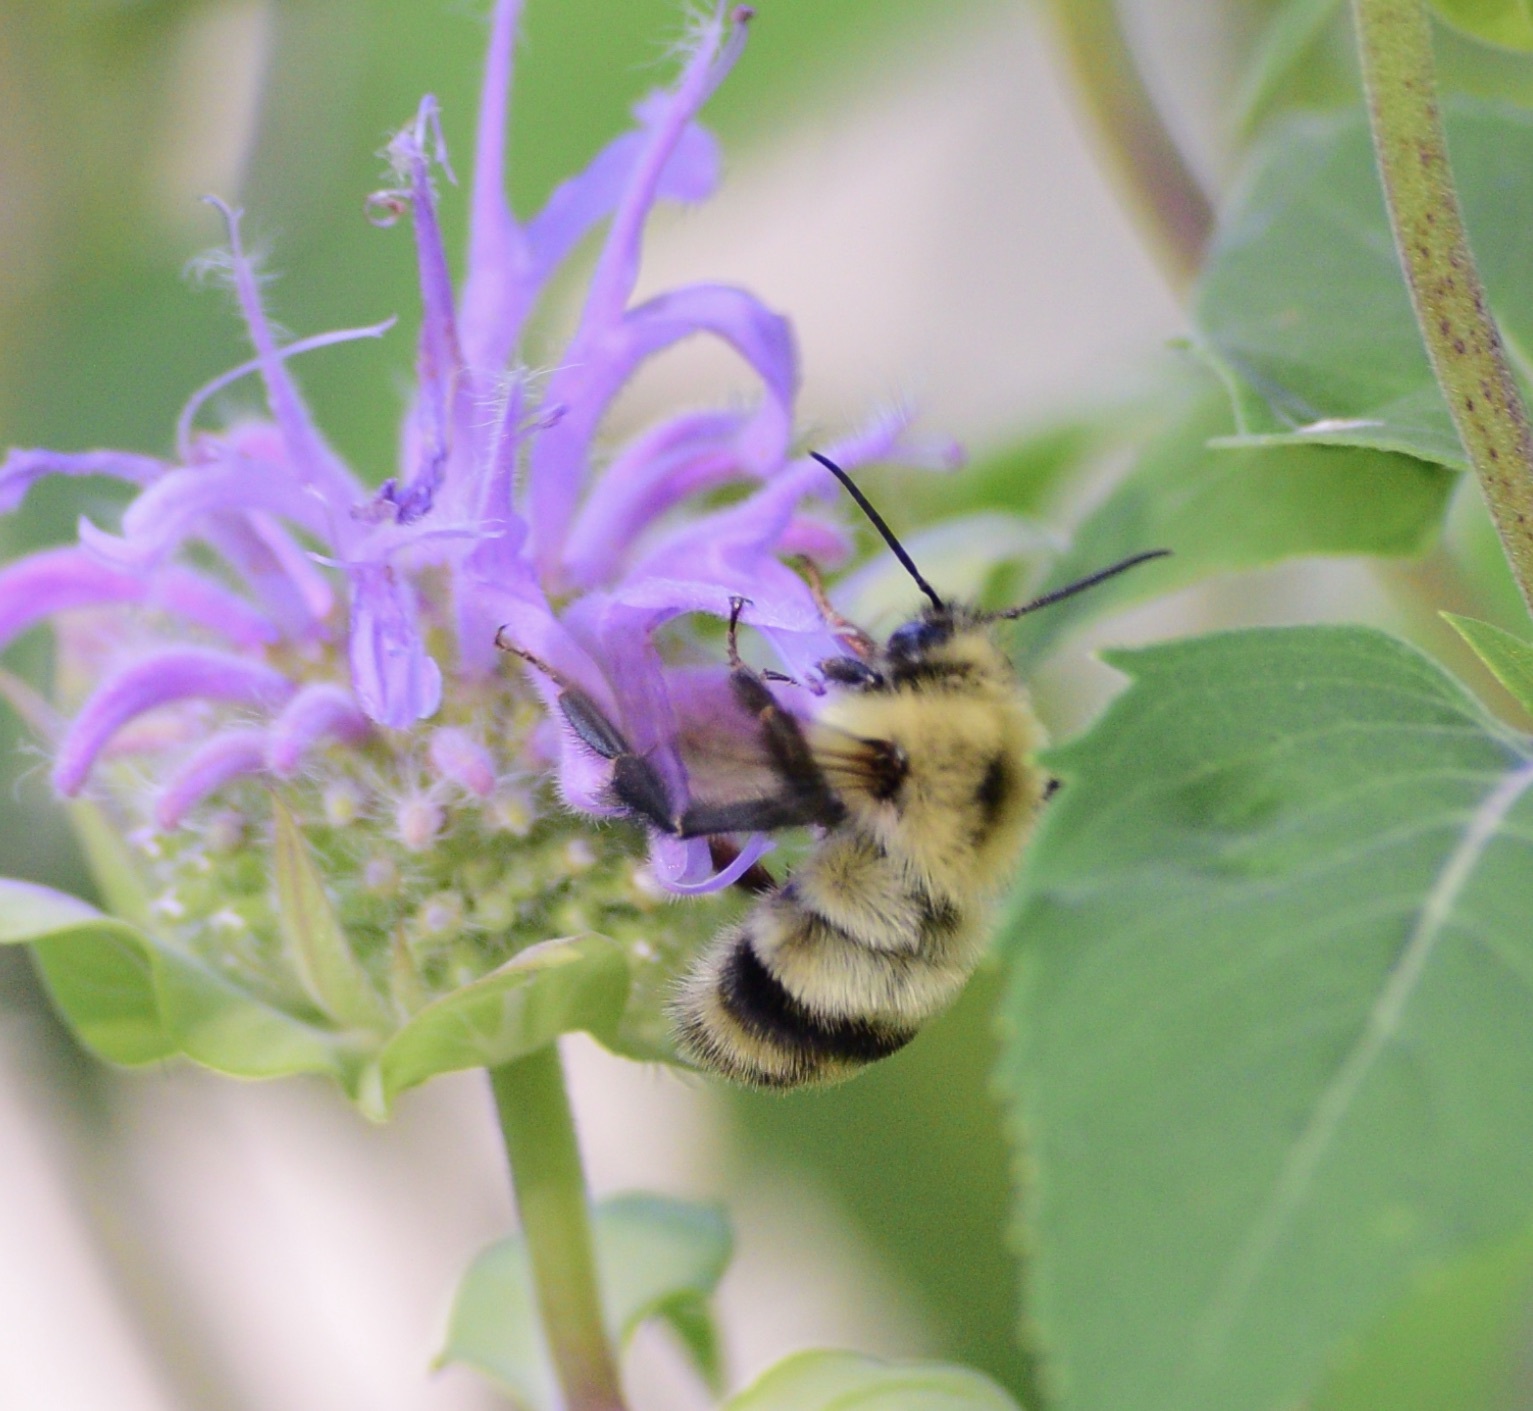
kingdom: Animalia
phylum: Arthropoda
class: Insecta
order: Hymenoptera
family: Apidae
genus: Bombus
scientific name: Bombus bimaculatus
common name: Two-spotted bumble bee
